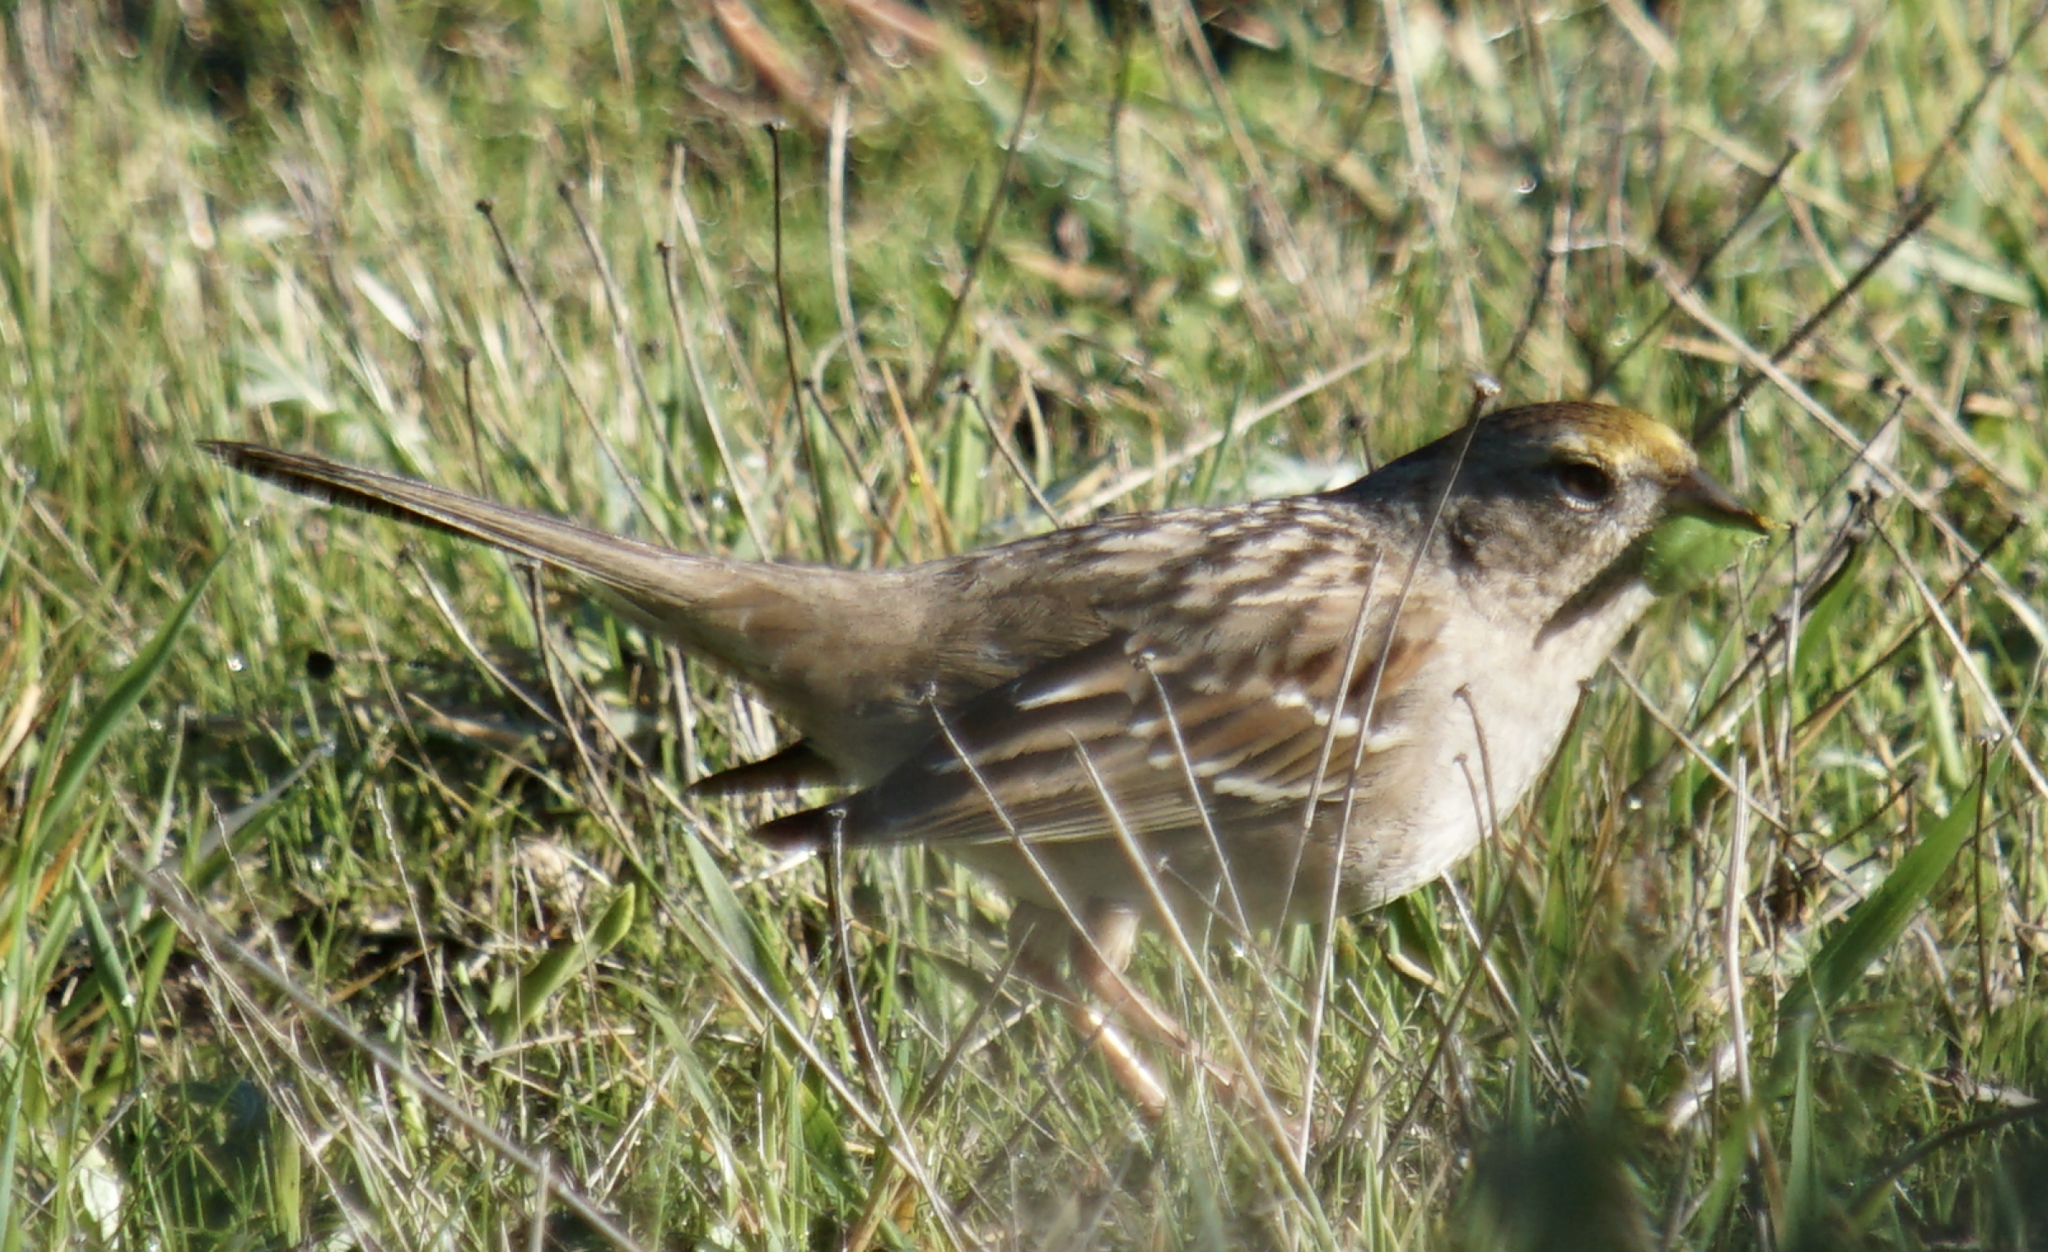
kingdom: Animalia
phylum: Chordata
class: Aves
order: Passeriformes
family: Passerellidae
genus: Zonotrichia
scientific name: Zonotrichia atricapilla
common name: Golden-crowned sparrow
